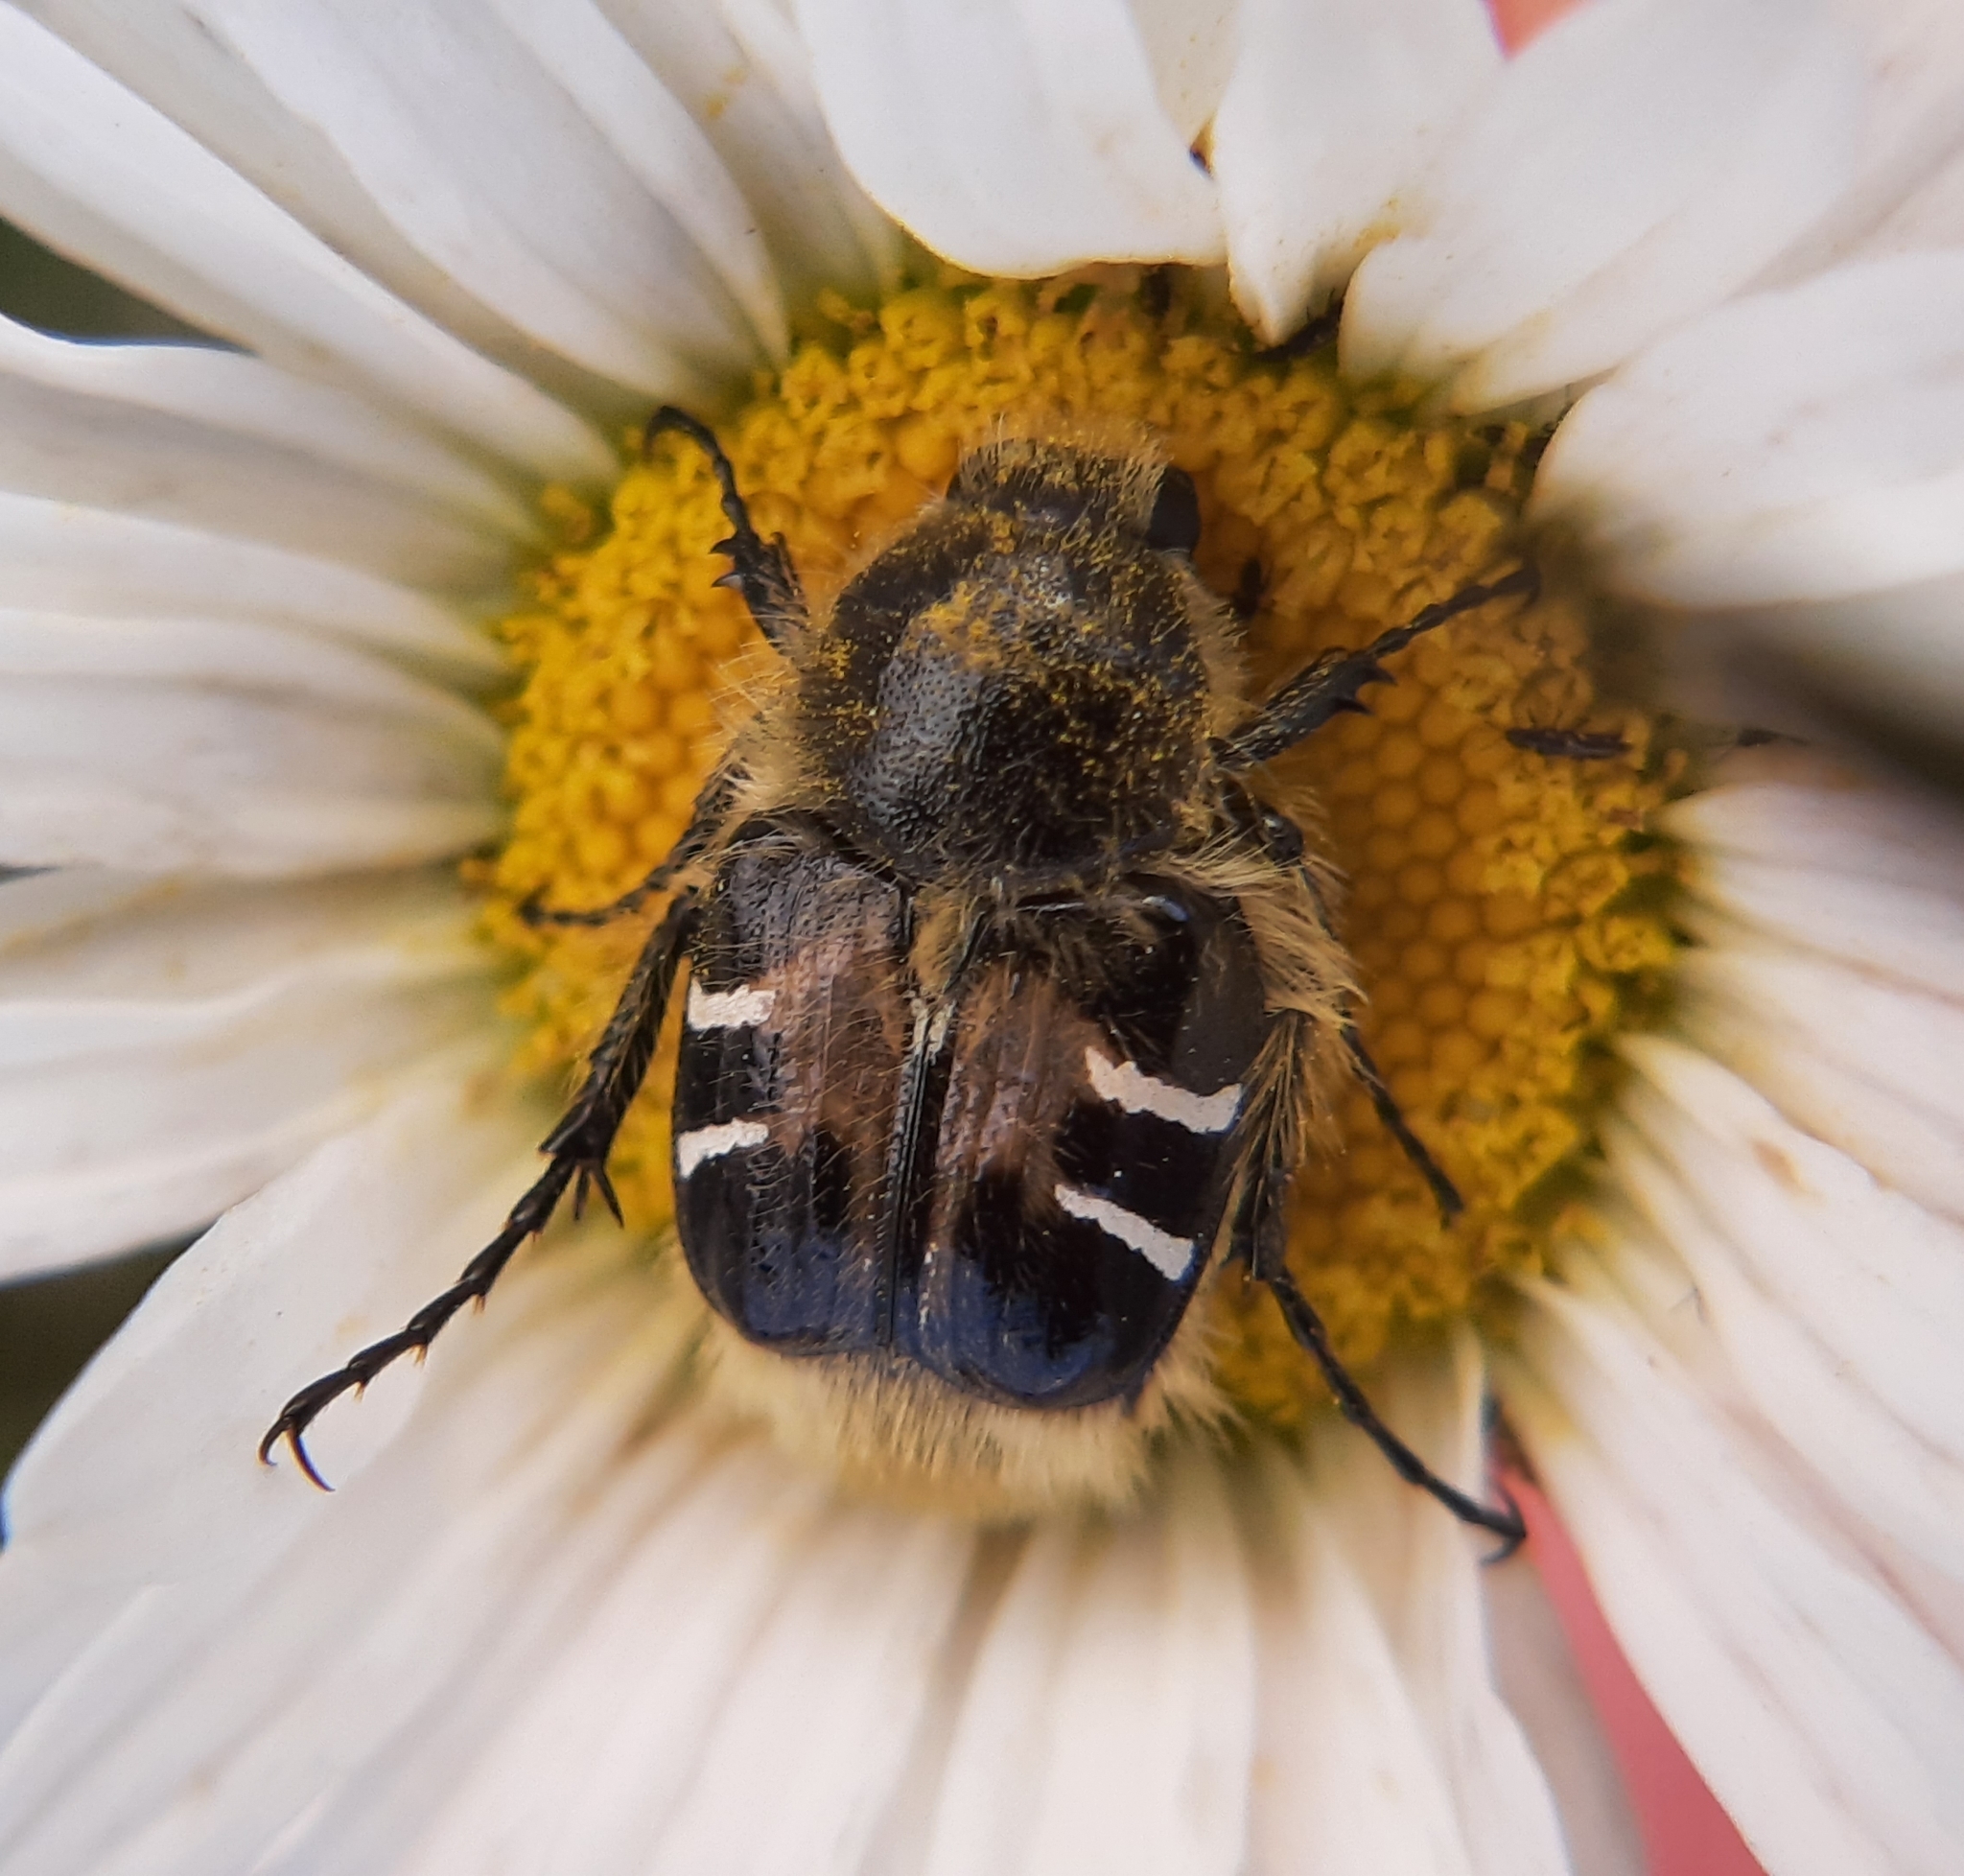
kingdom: Animalia
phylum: Arthropoda
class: Insecta
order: Coleoptera
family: Scarabaeidae
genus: Trichiotinus
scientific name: Trichiotinus assimilis
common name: Bee-mimic beetle
